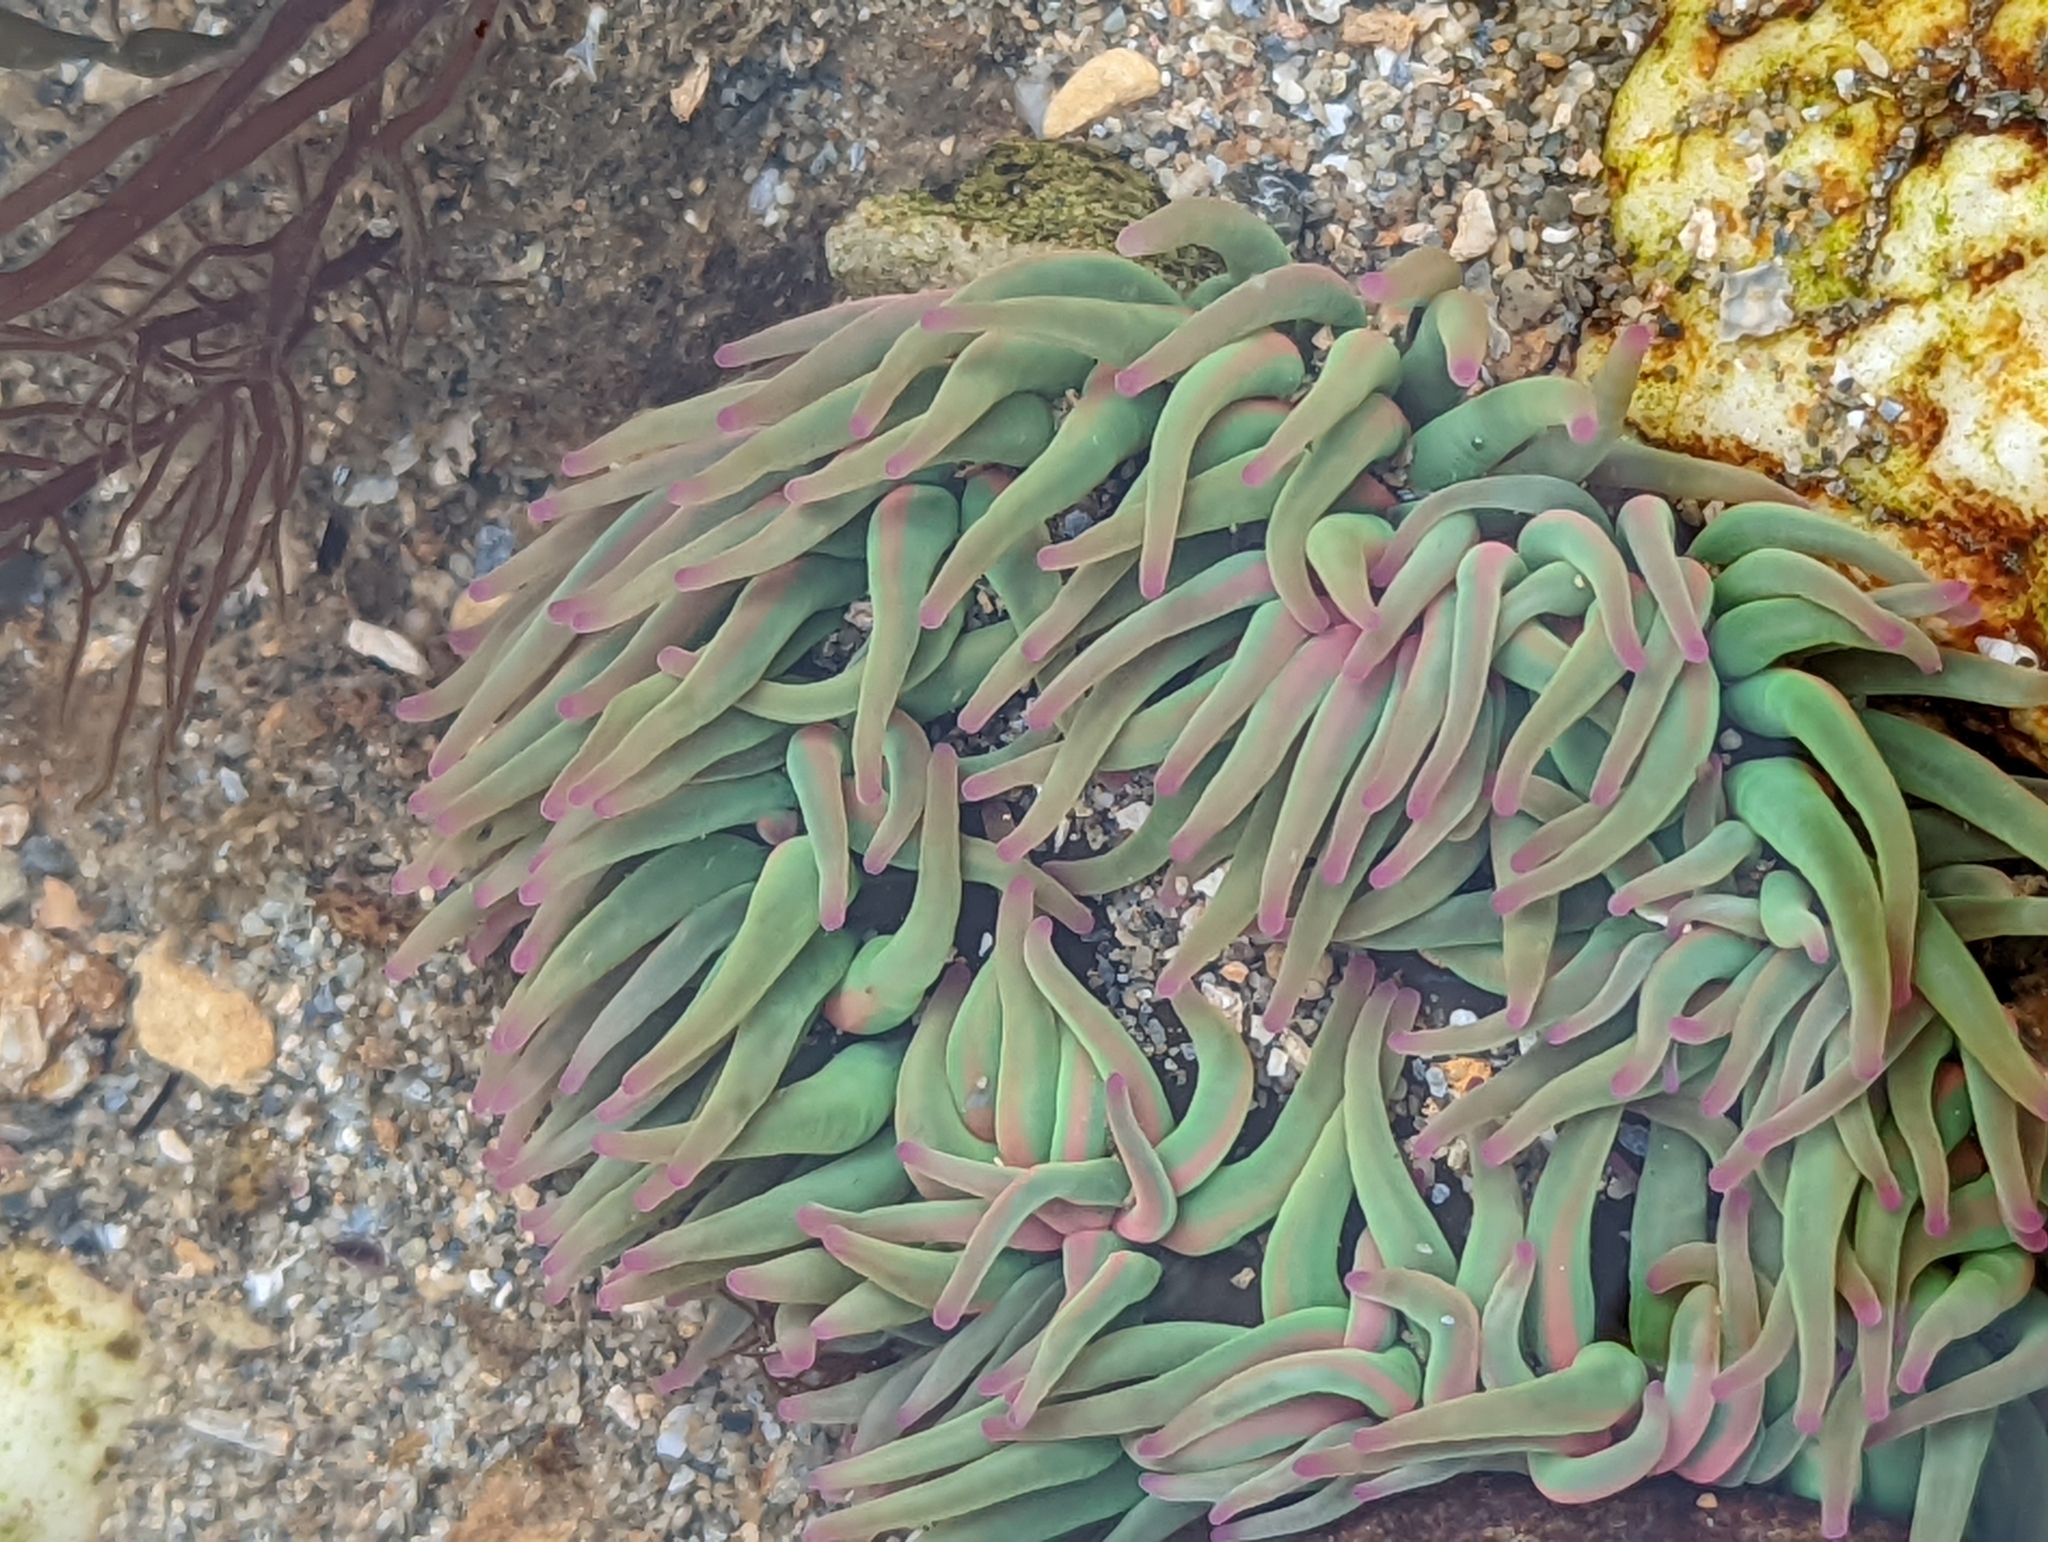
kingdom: Animalia
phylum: Cnidaria
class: Anthozoa
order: Actiniaria
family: Actiniidae
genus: Anemonia
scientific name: Anemonia viridis
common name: Snakelocks anemone
